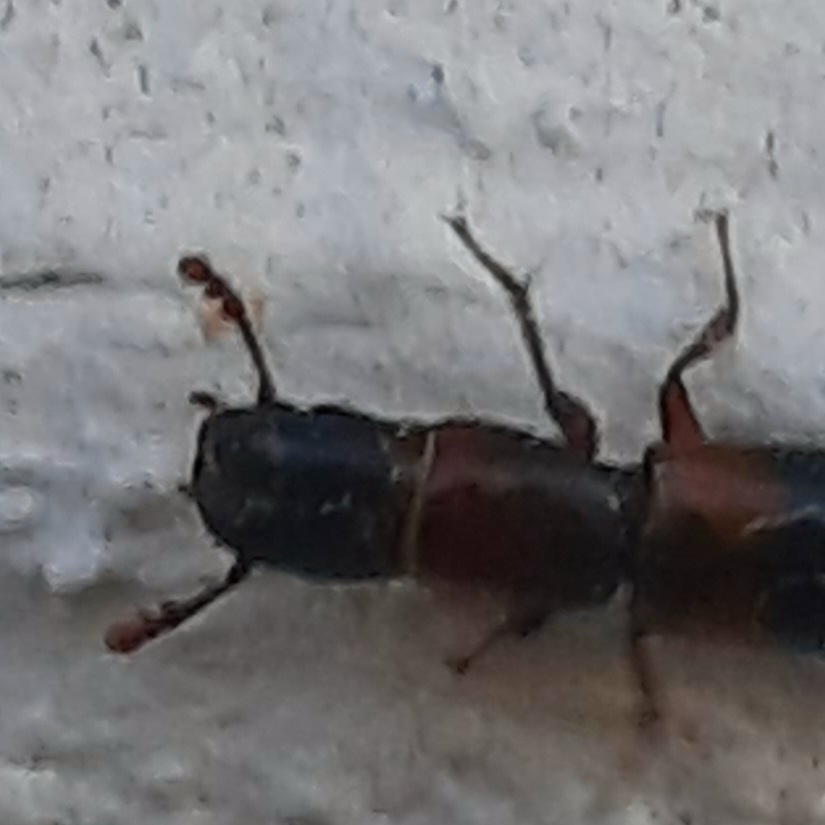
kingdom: Animalia
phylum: Arthropoda
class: Insecta
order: Coleoptera
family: Trogossitidae
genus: Nemozoma
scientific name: Nemozoma caucasicum
